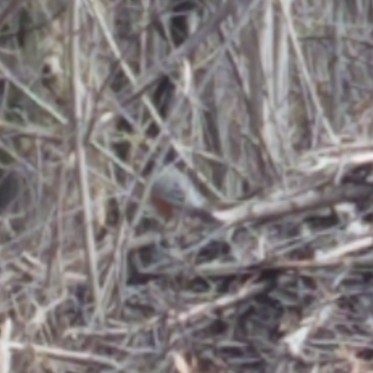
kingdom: Animalia
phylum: Chordata
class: Aves
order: Passeriformes
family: Turdidae
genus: Turdus
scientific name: Turdus migratorius
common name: American robin
